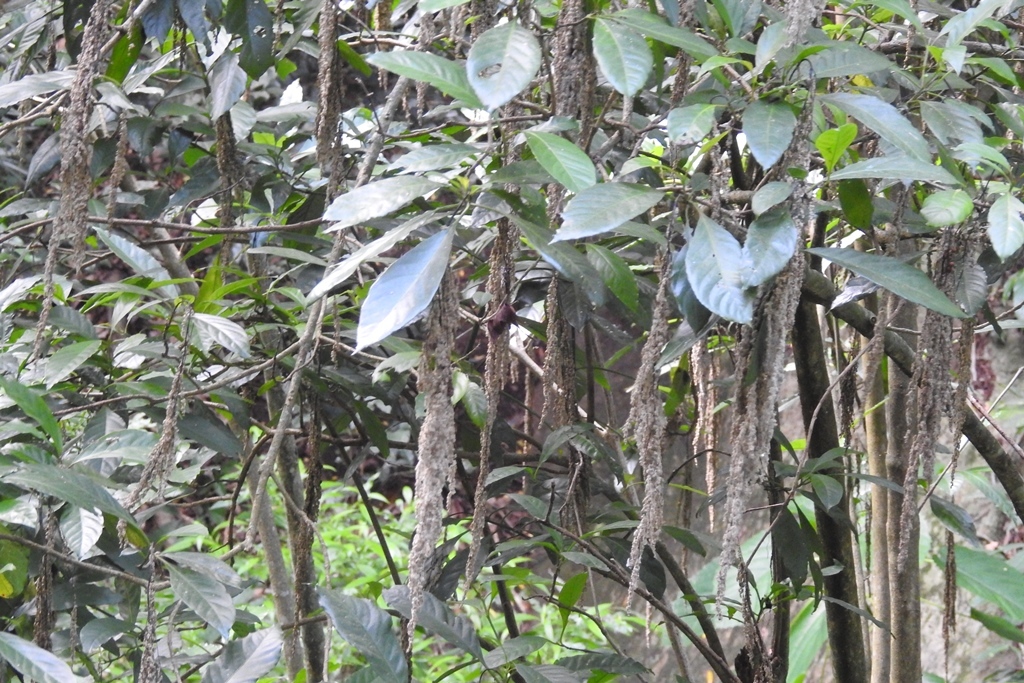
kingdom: Plantae
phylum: Tracheophyta
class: Magnoliopsida
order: Caryophyllales
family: Amaranthaceae
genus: Iresine
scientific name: Iresine arbuscula
